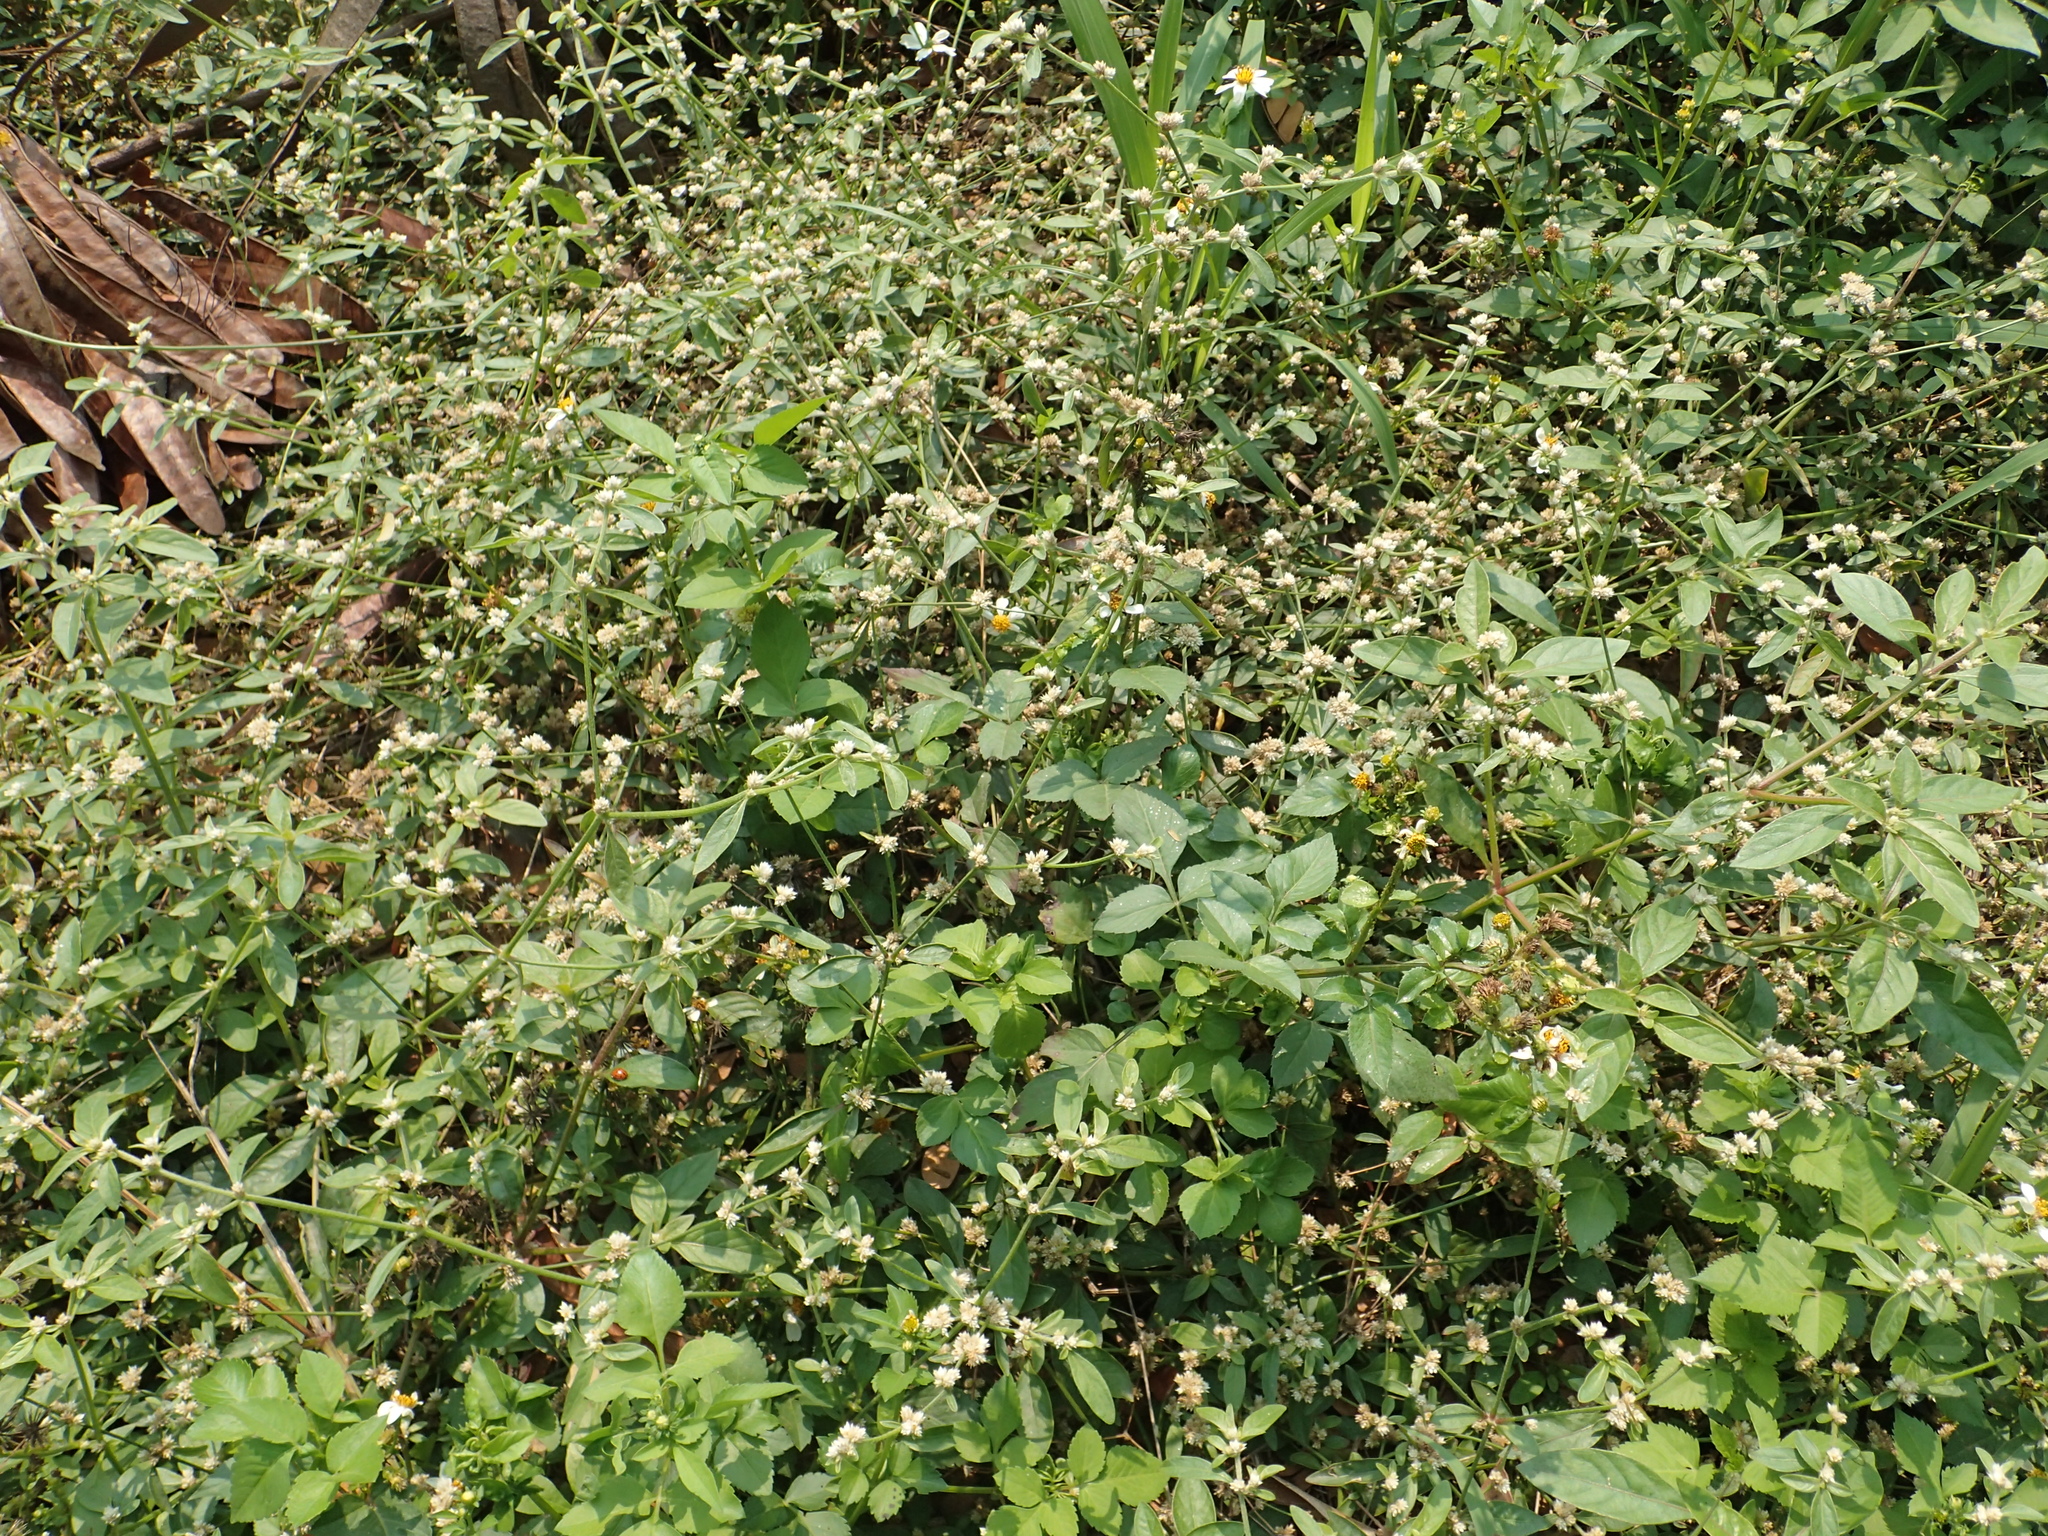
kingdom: Plantae
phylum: Tracheophyta
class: Magnoliopsida
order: Caryophyllales
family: Amaranthaceae
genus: Alternanthera
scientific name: Alternanthera bettzickiana
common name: Calico-plant
